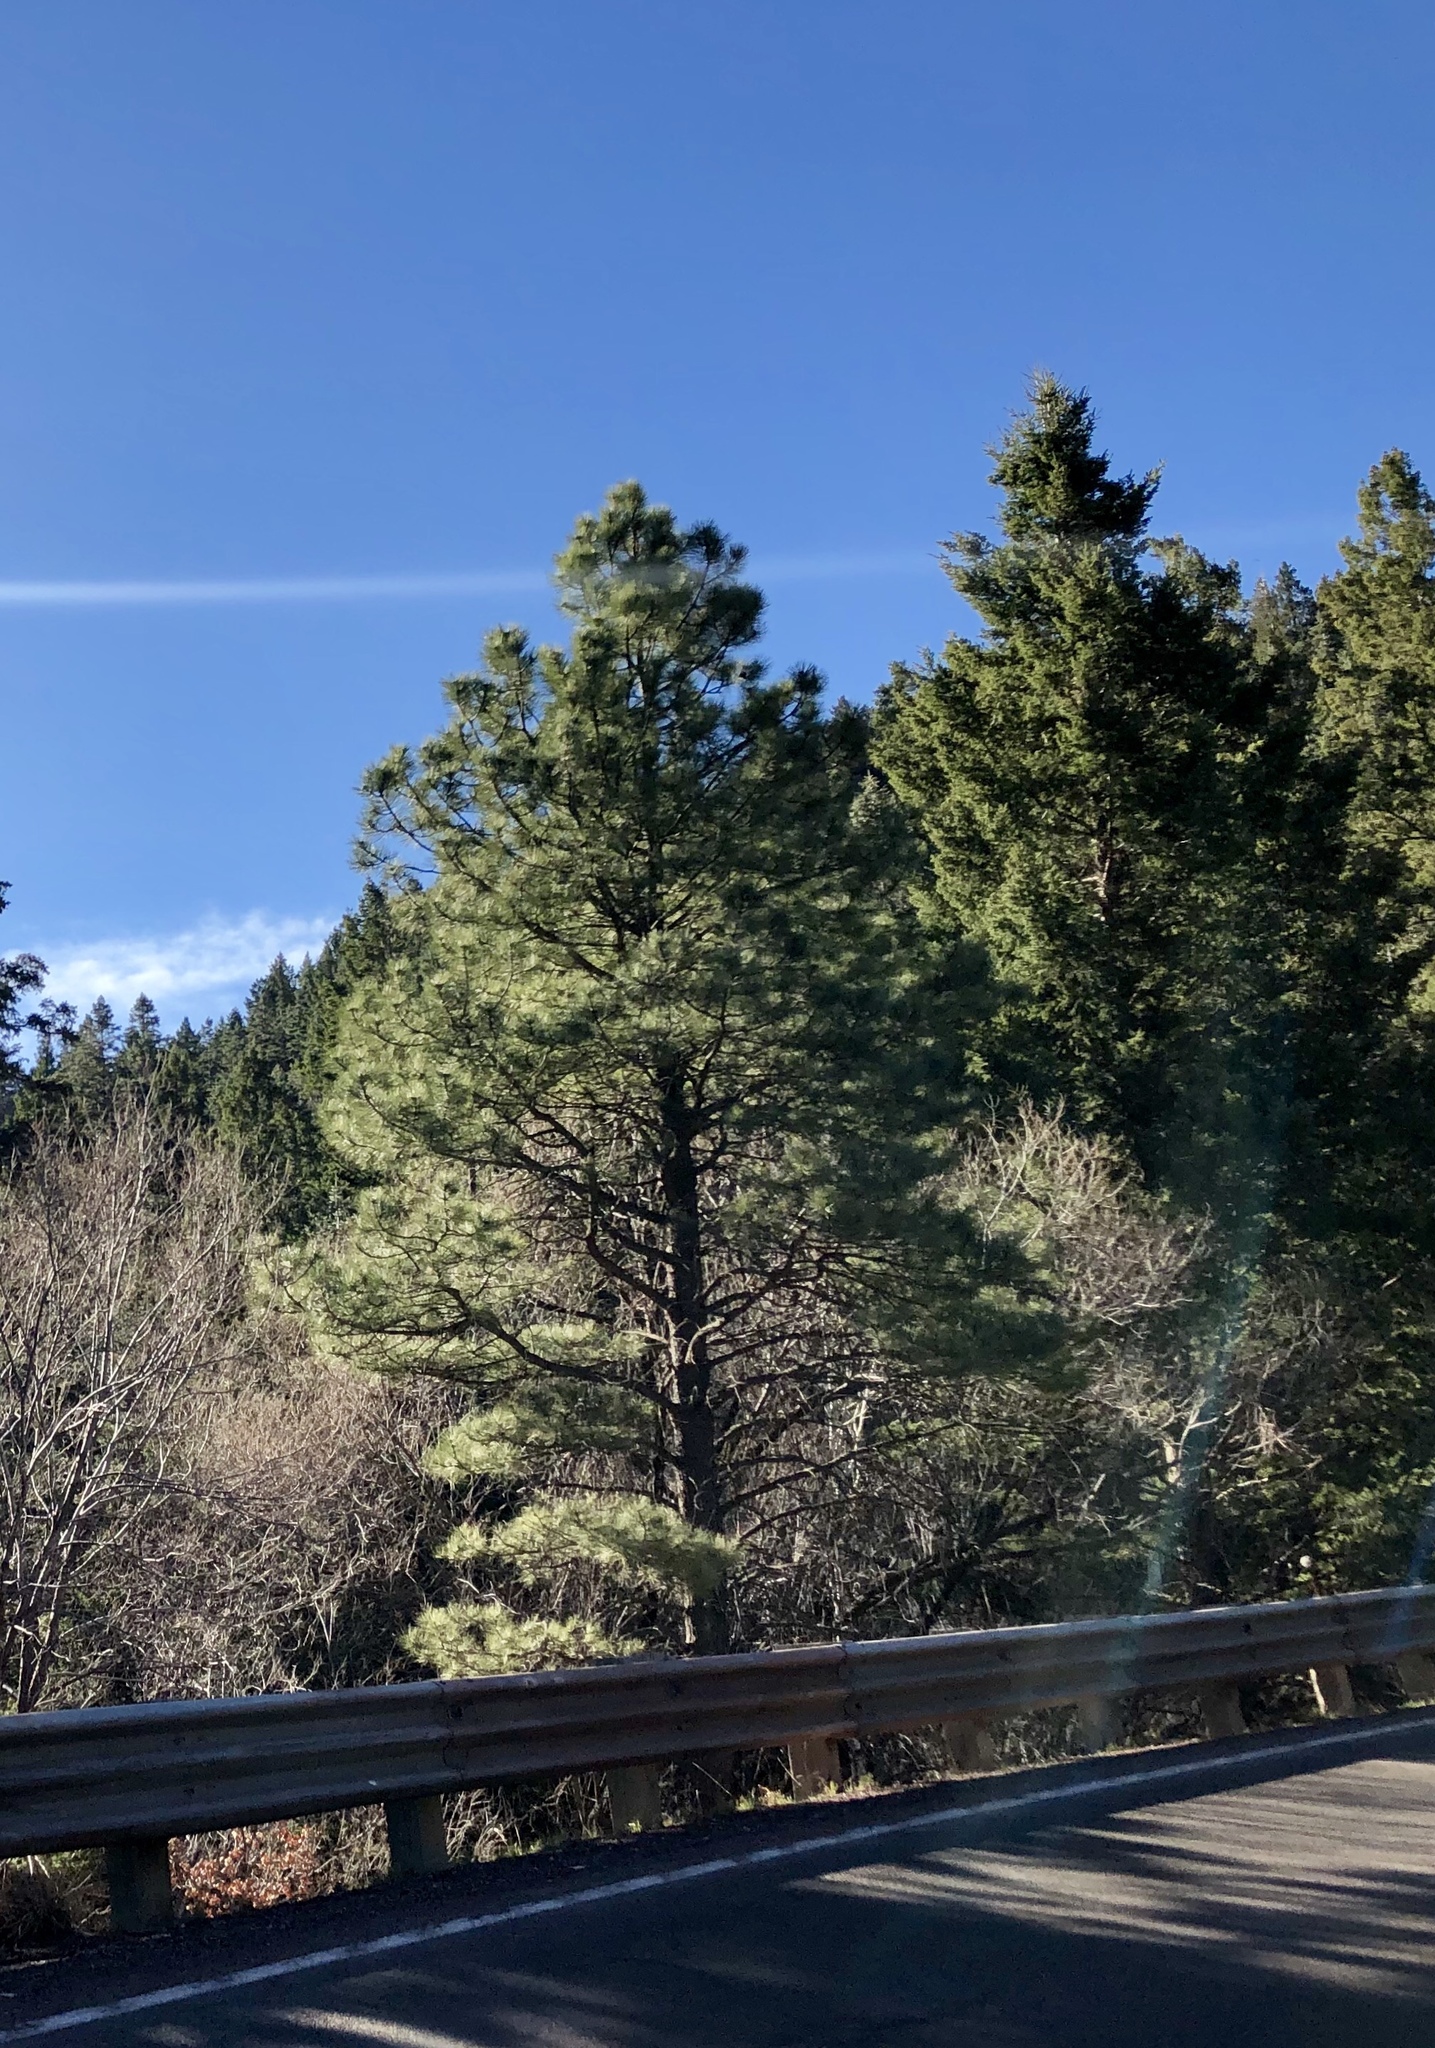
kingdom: Plantae
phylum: Tracheophyta
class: Pinopsida
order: Pinales
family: Pinaceae
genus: Pinus
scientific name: Pinus ponderosa
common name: Western yellow-pine
